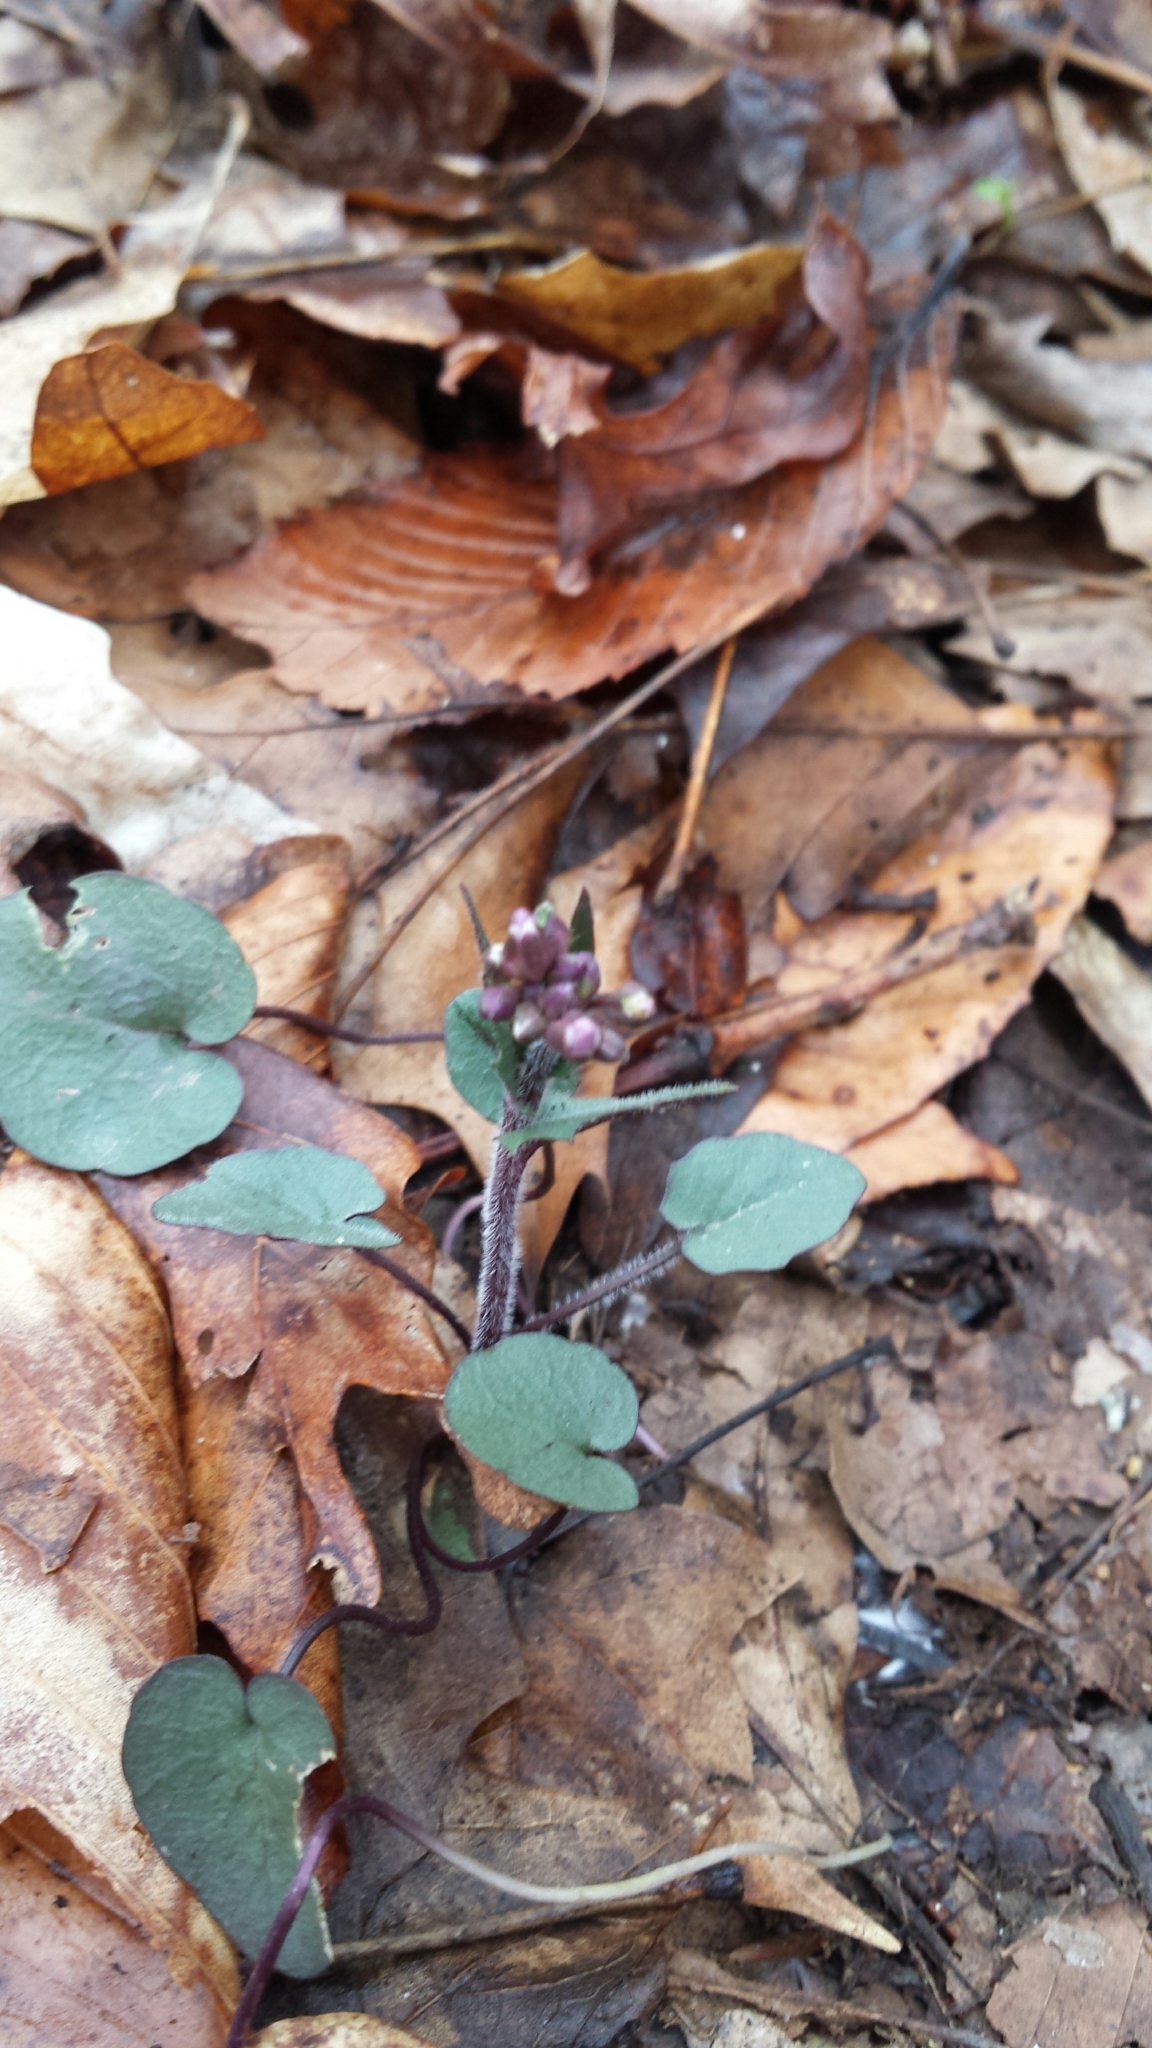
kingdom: Plantae
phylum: Tracheophyta
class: Magnoliopsida
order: Brassicales
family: Brassicaceae
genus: Cardamine
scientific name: Cardamine douglassii
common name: Purple cress
